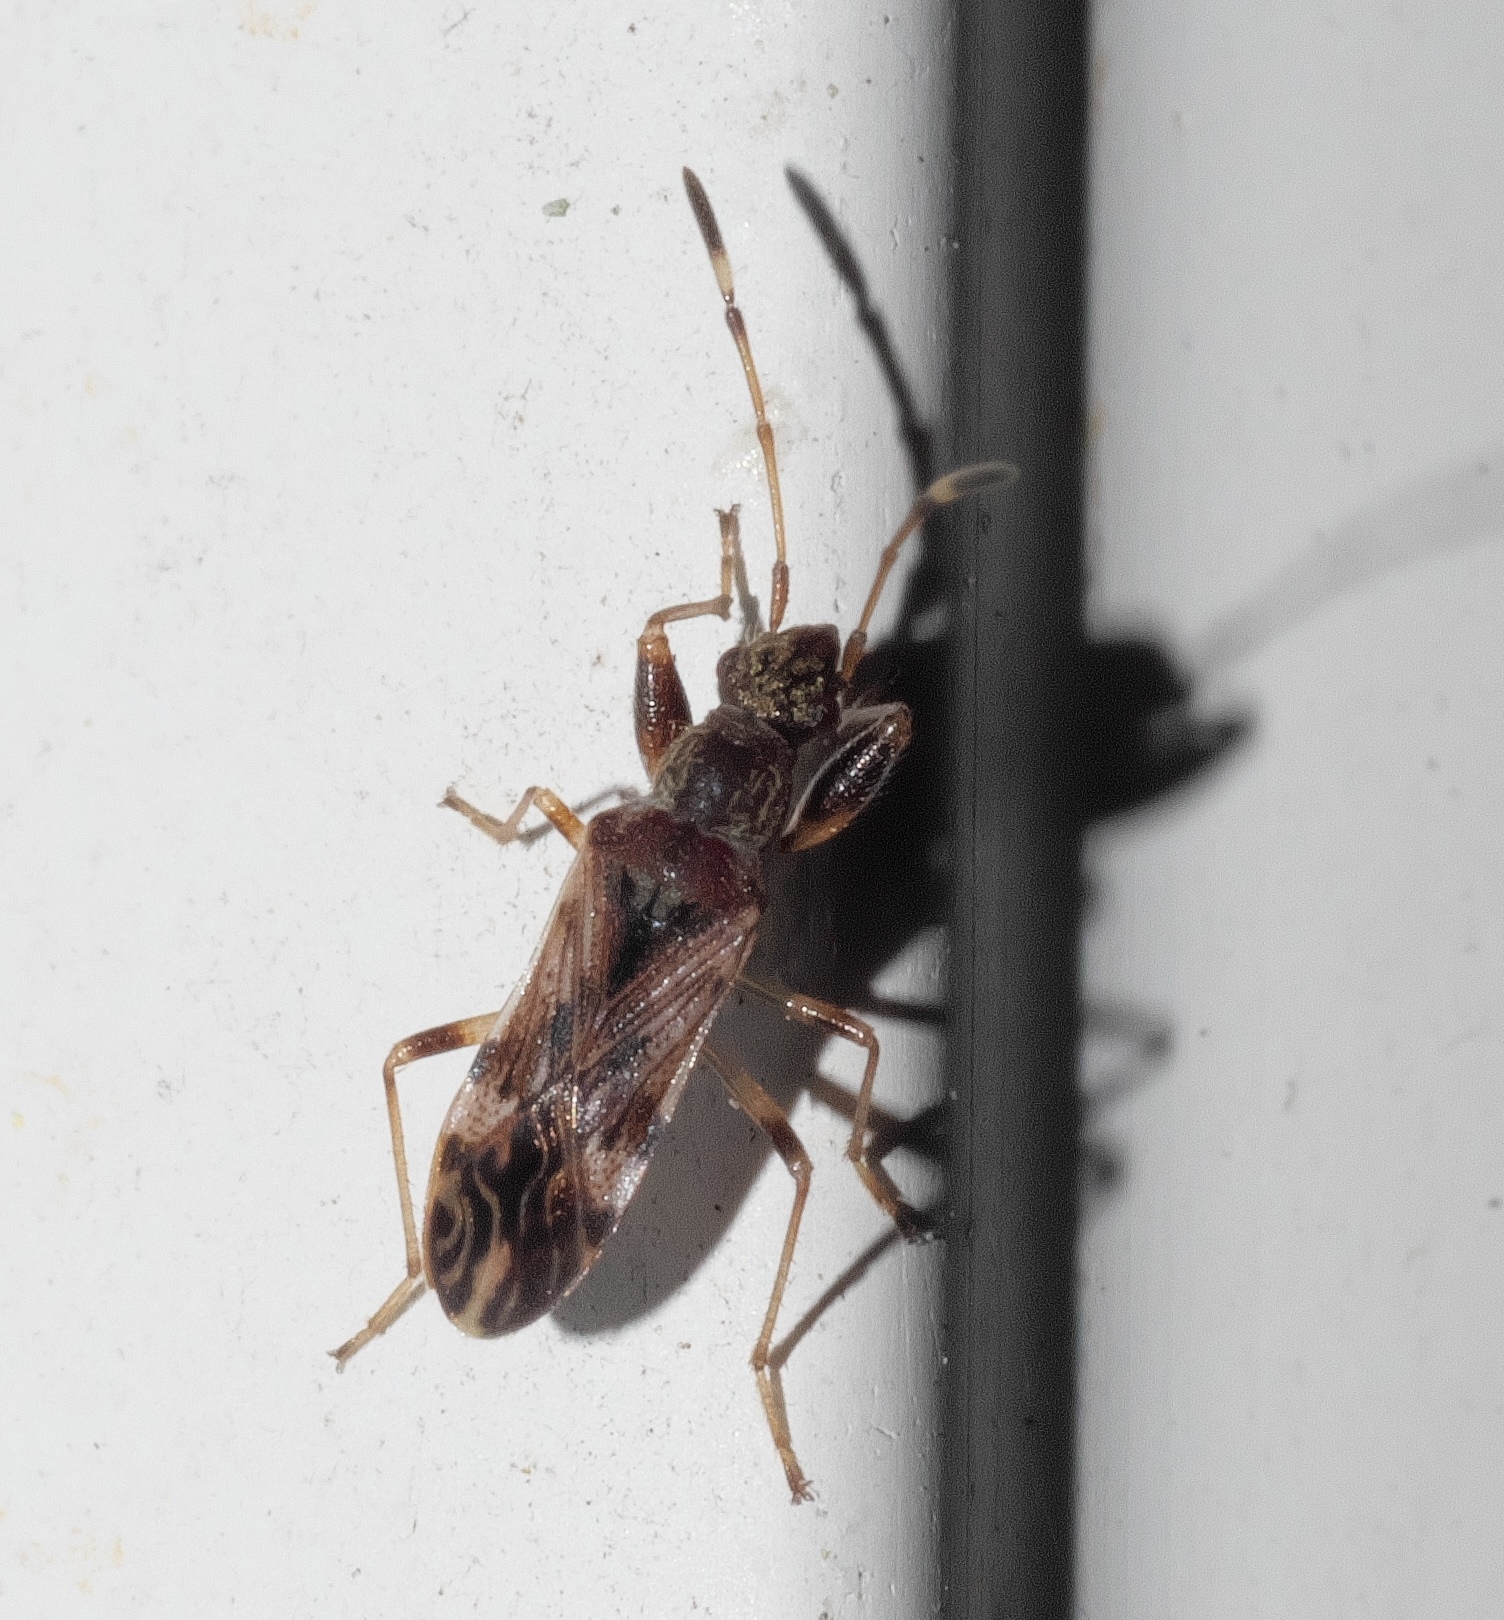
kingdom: Animalia
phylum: Arthropoda
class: Insecta
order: Hemiptera
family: Rhyparochromidae
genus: Neopamera
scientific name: Neopamera albocincta
